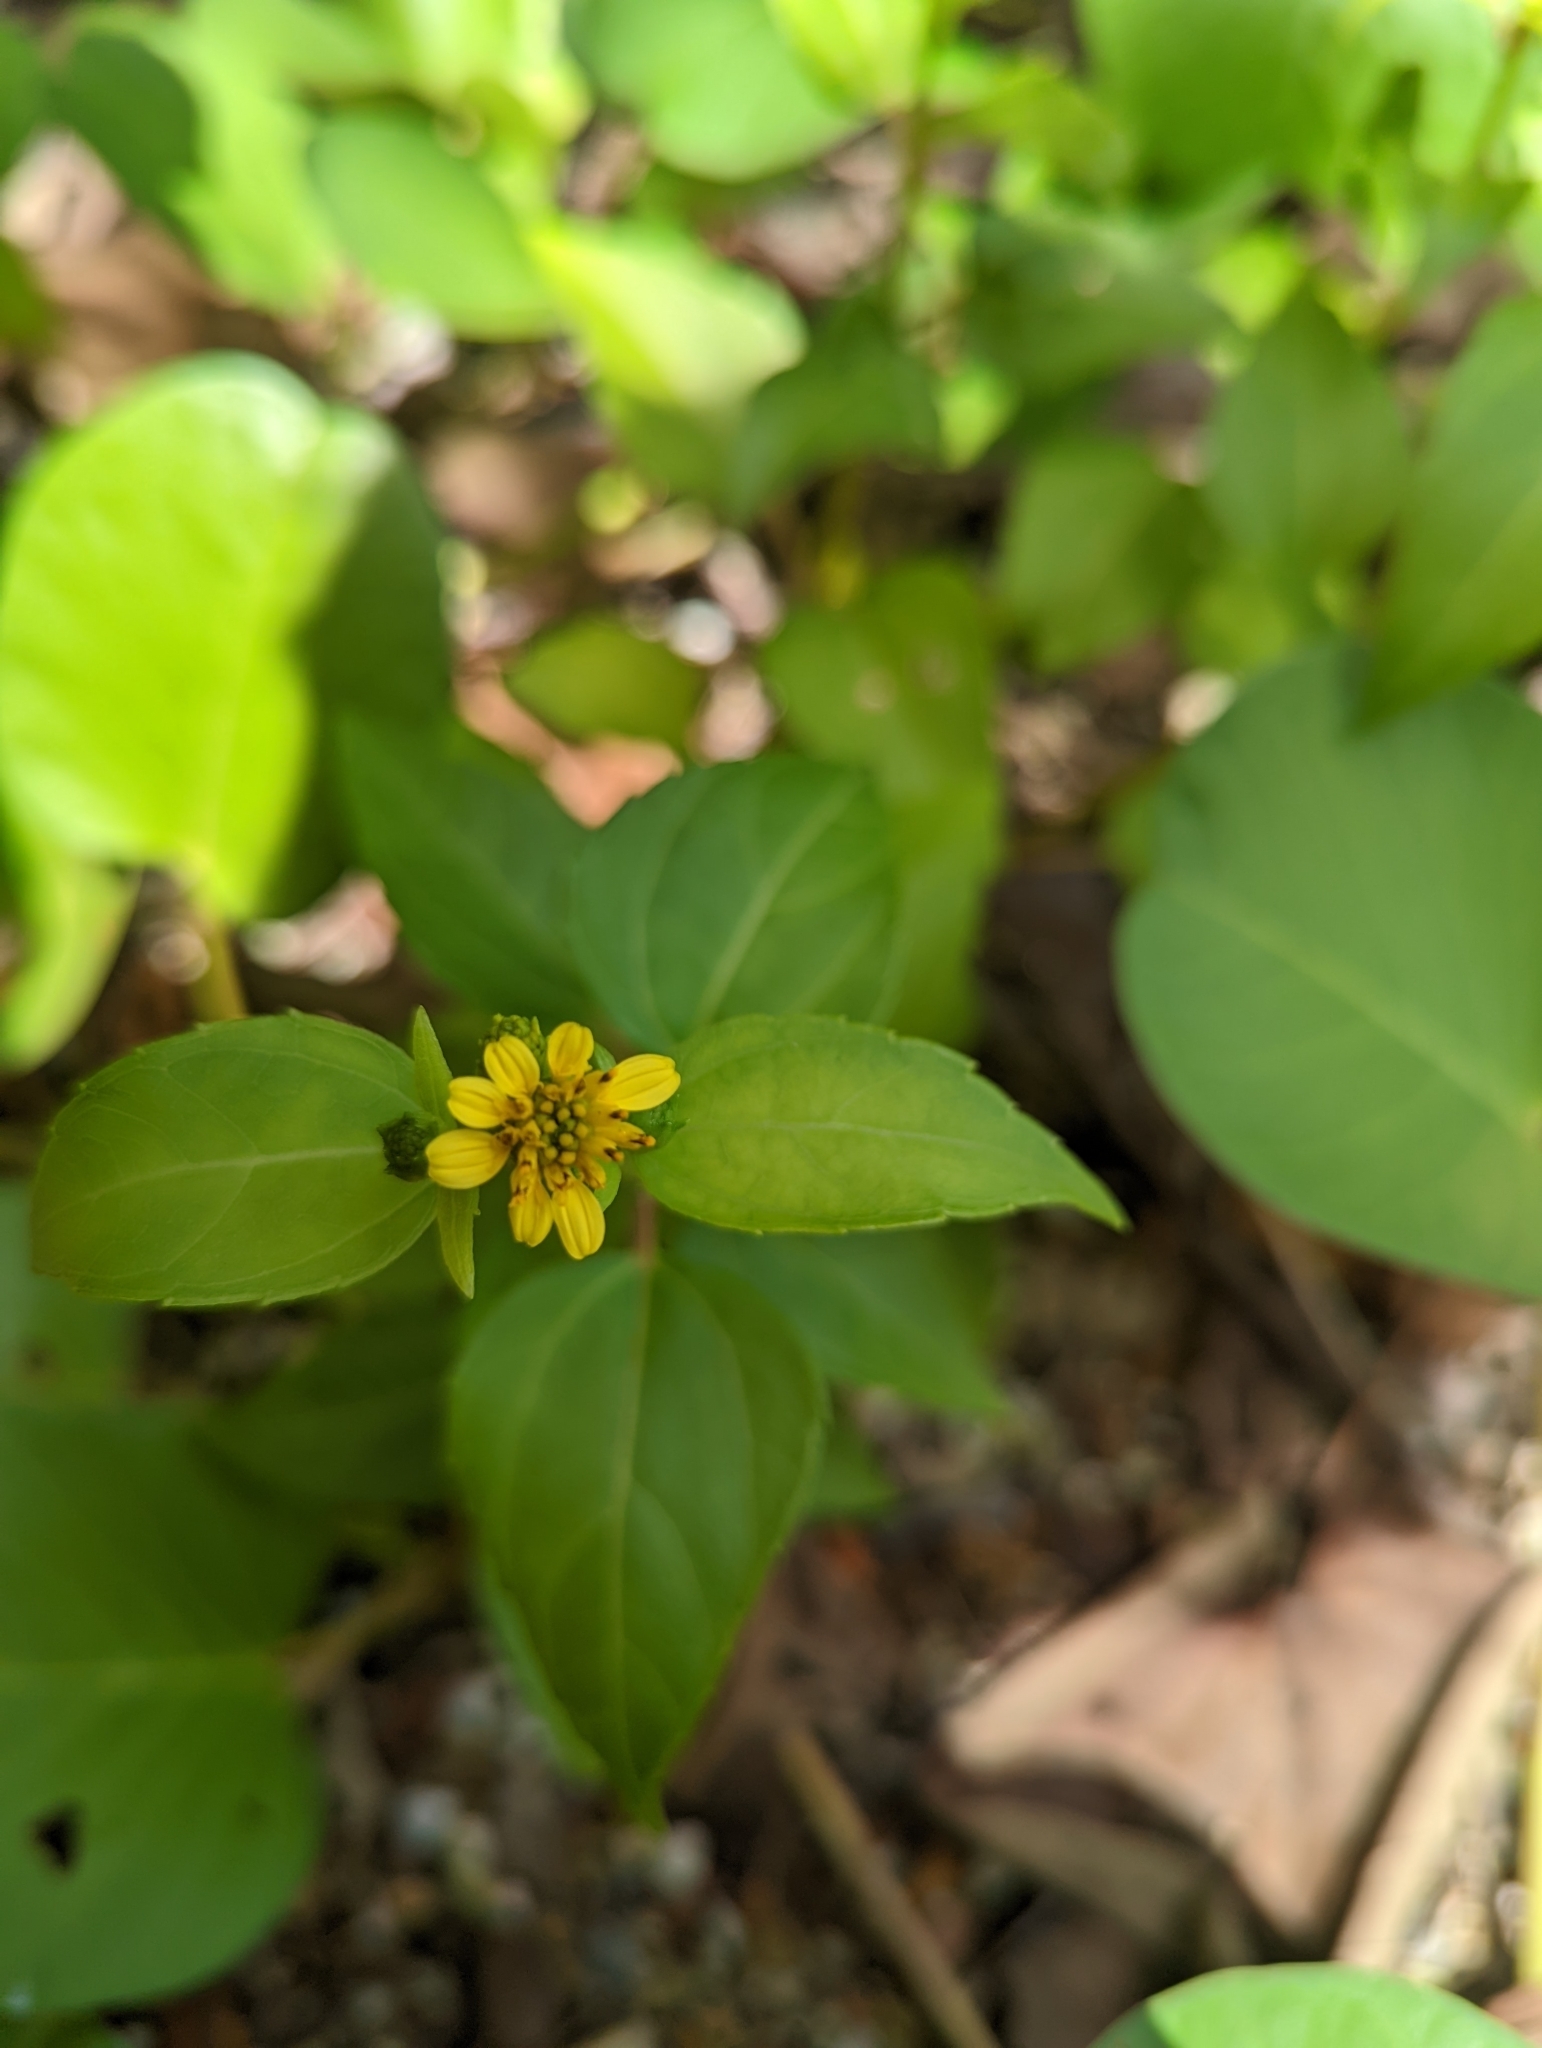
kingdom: Plantae
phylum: Tracheophyta
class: Magnoliopsida
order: Asterales
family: Asteraceae
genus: Wollastonia
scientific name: Wollastonia biflora
